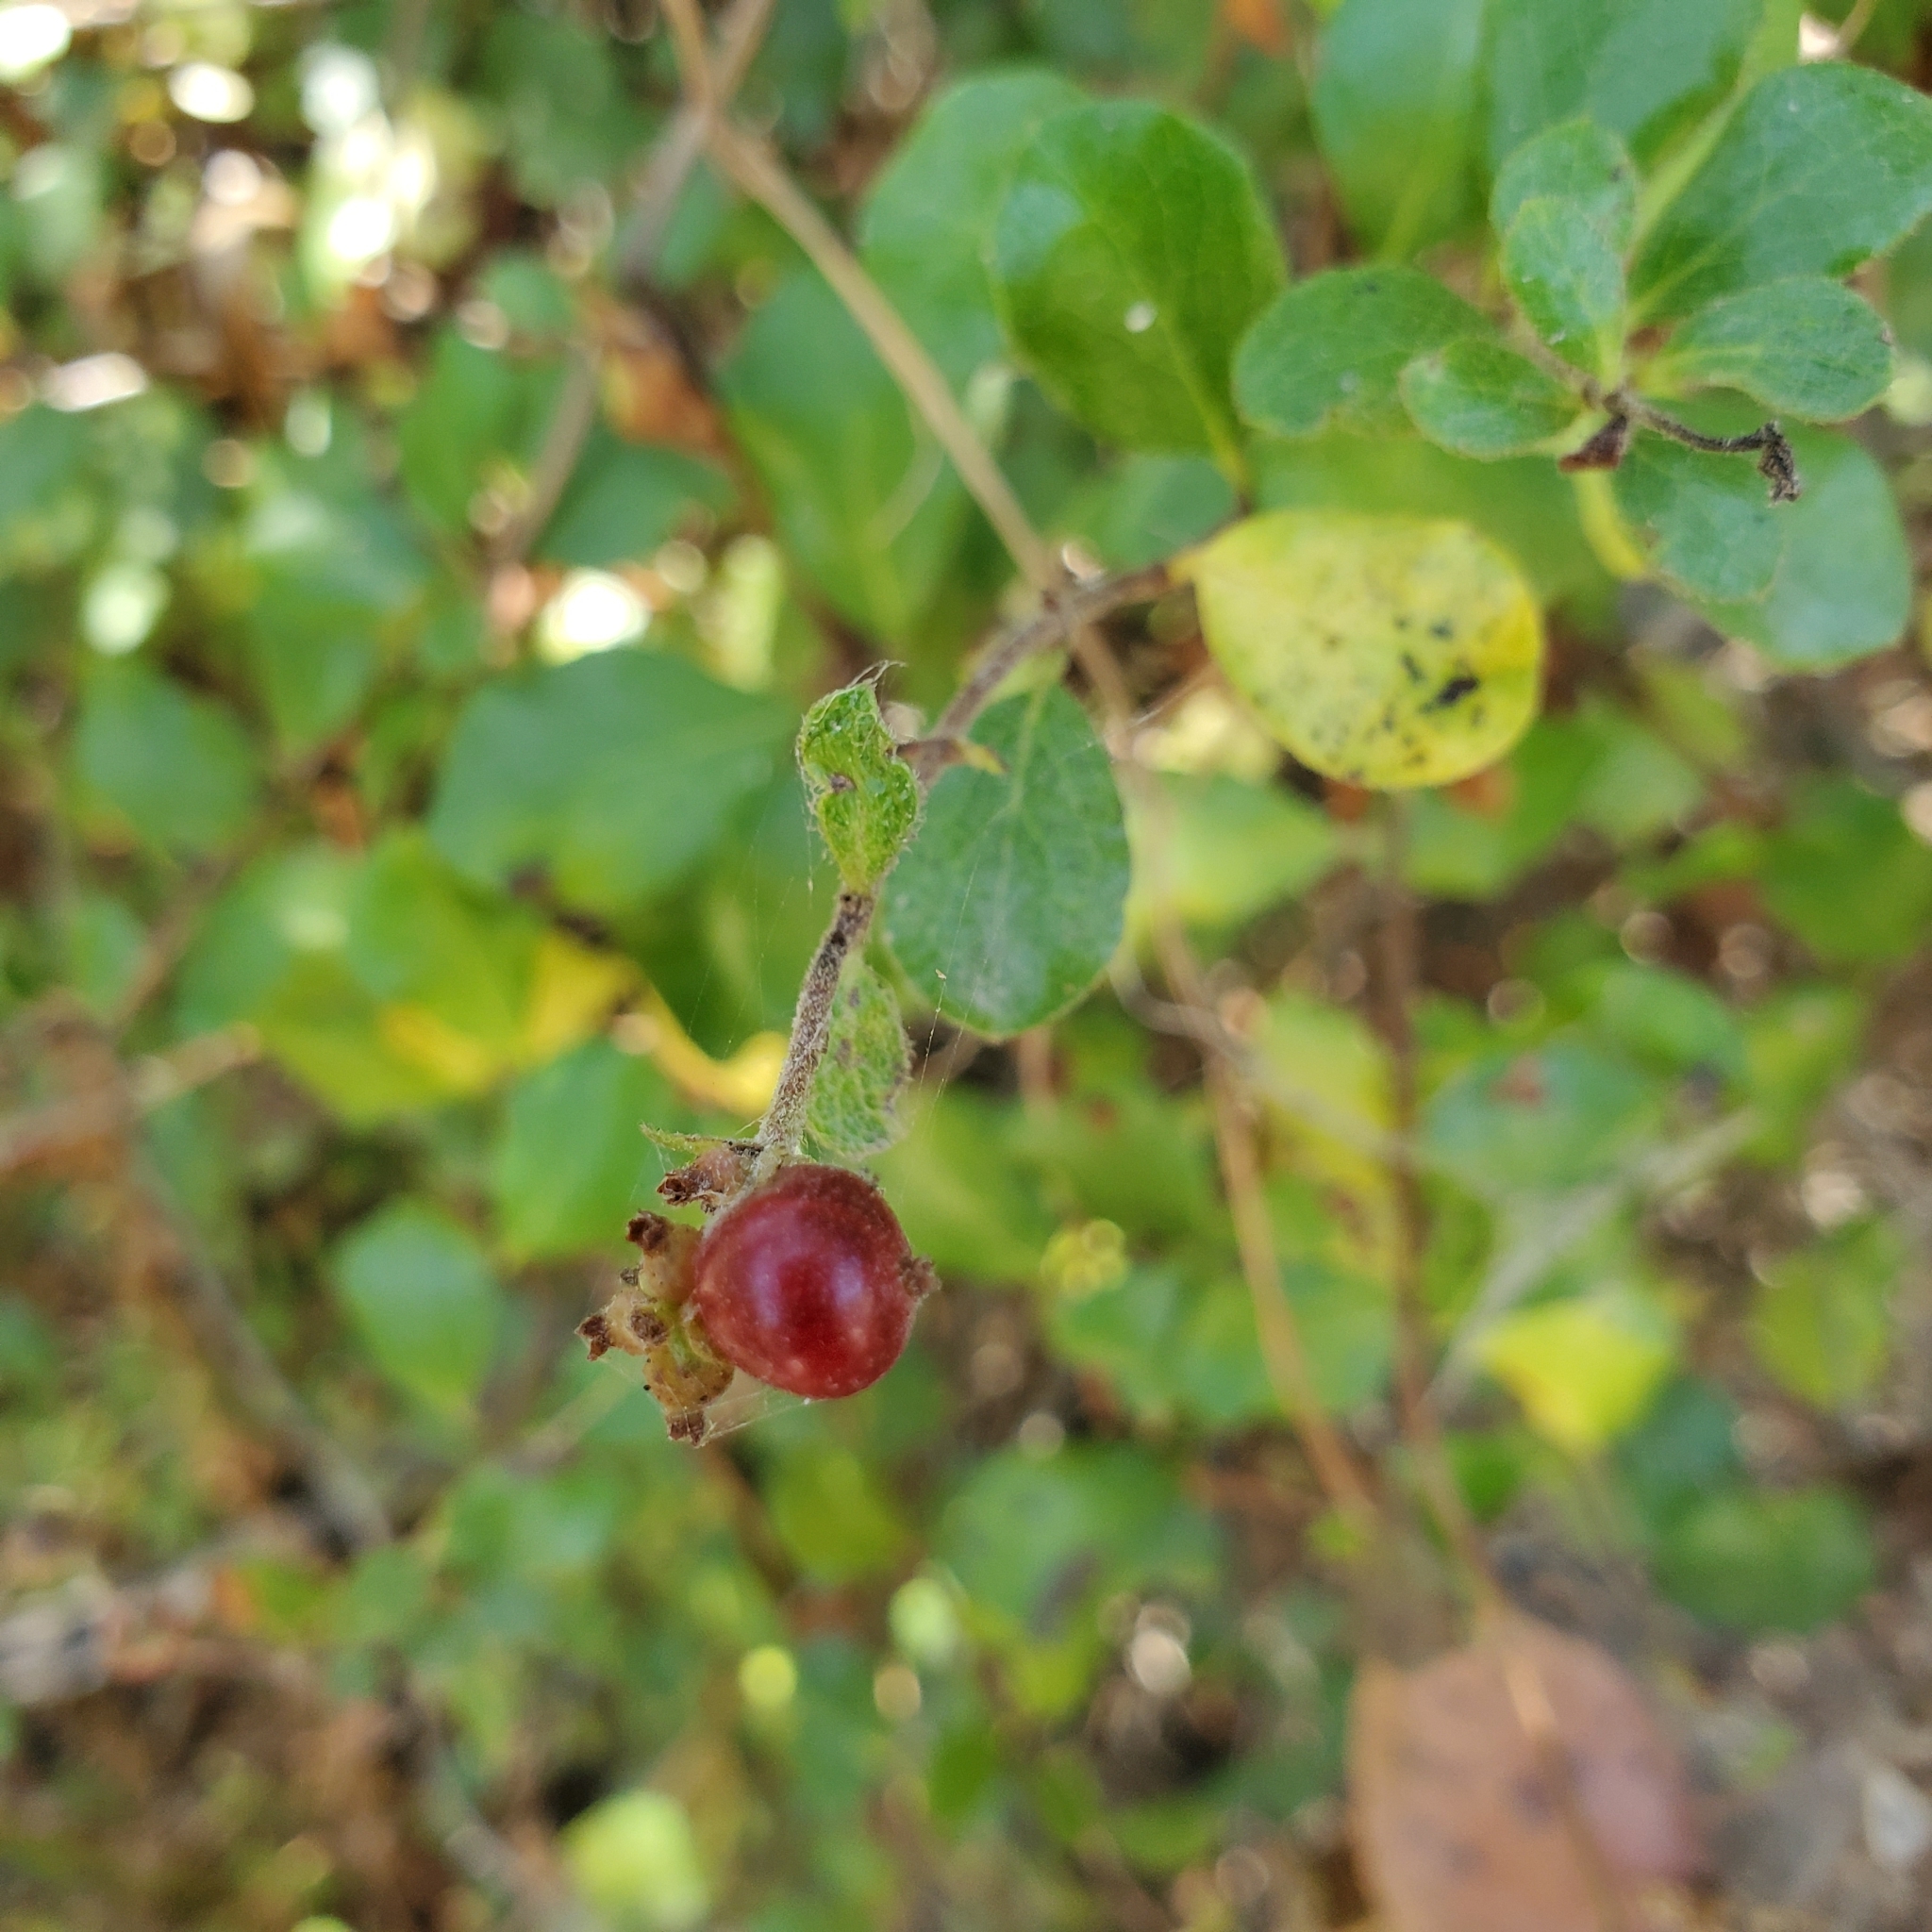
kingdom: Plantae
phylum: Tracheophyta
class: Magnoliopsida
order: Dipsacales
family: Caprifoliaceae
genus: Lonicera
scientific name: Lonicera subspicata
